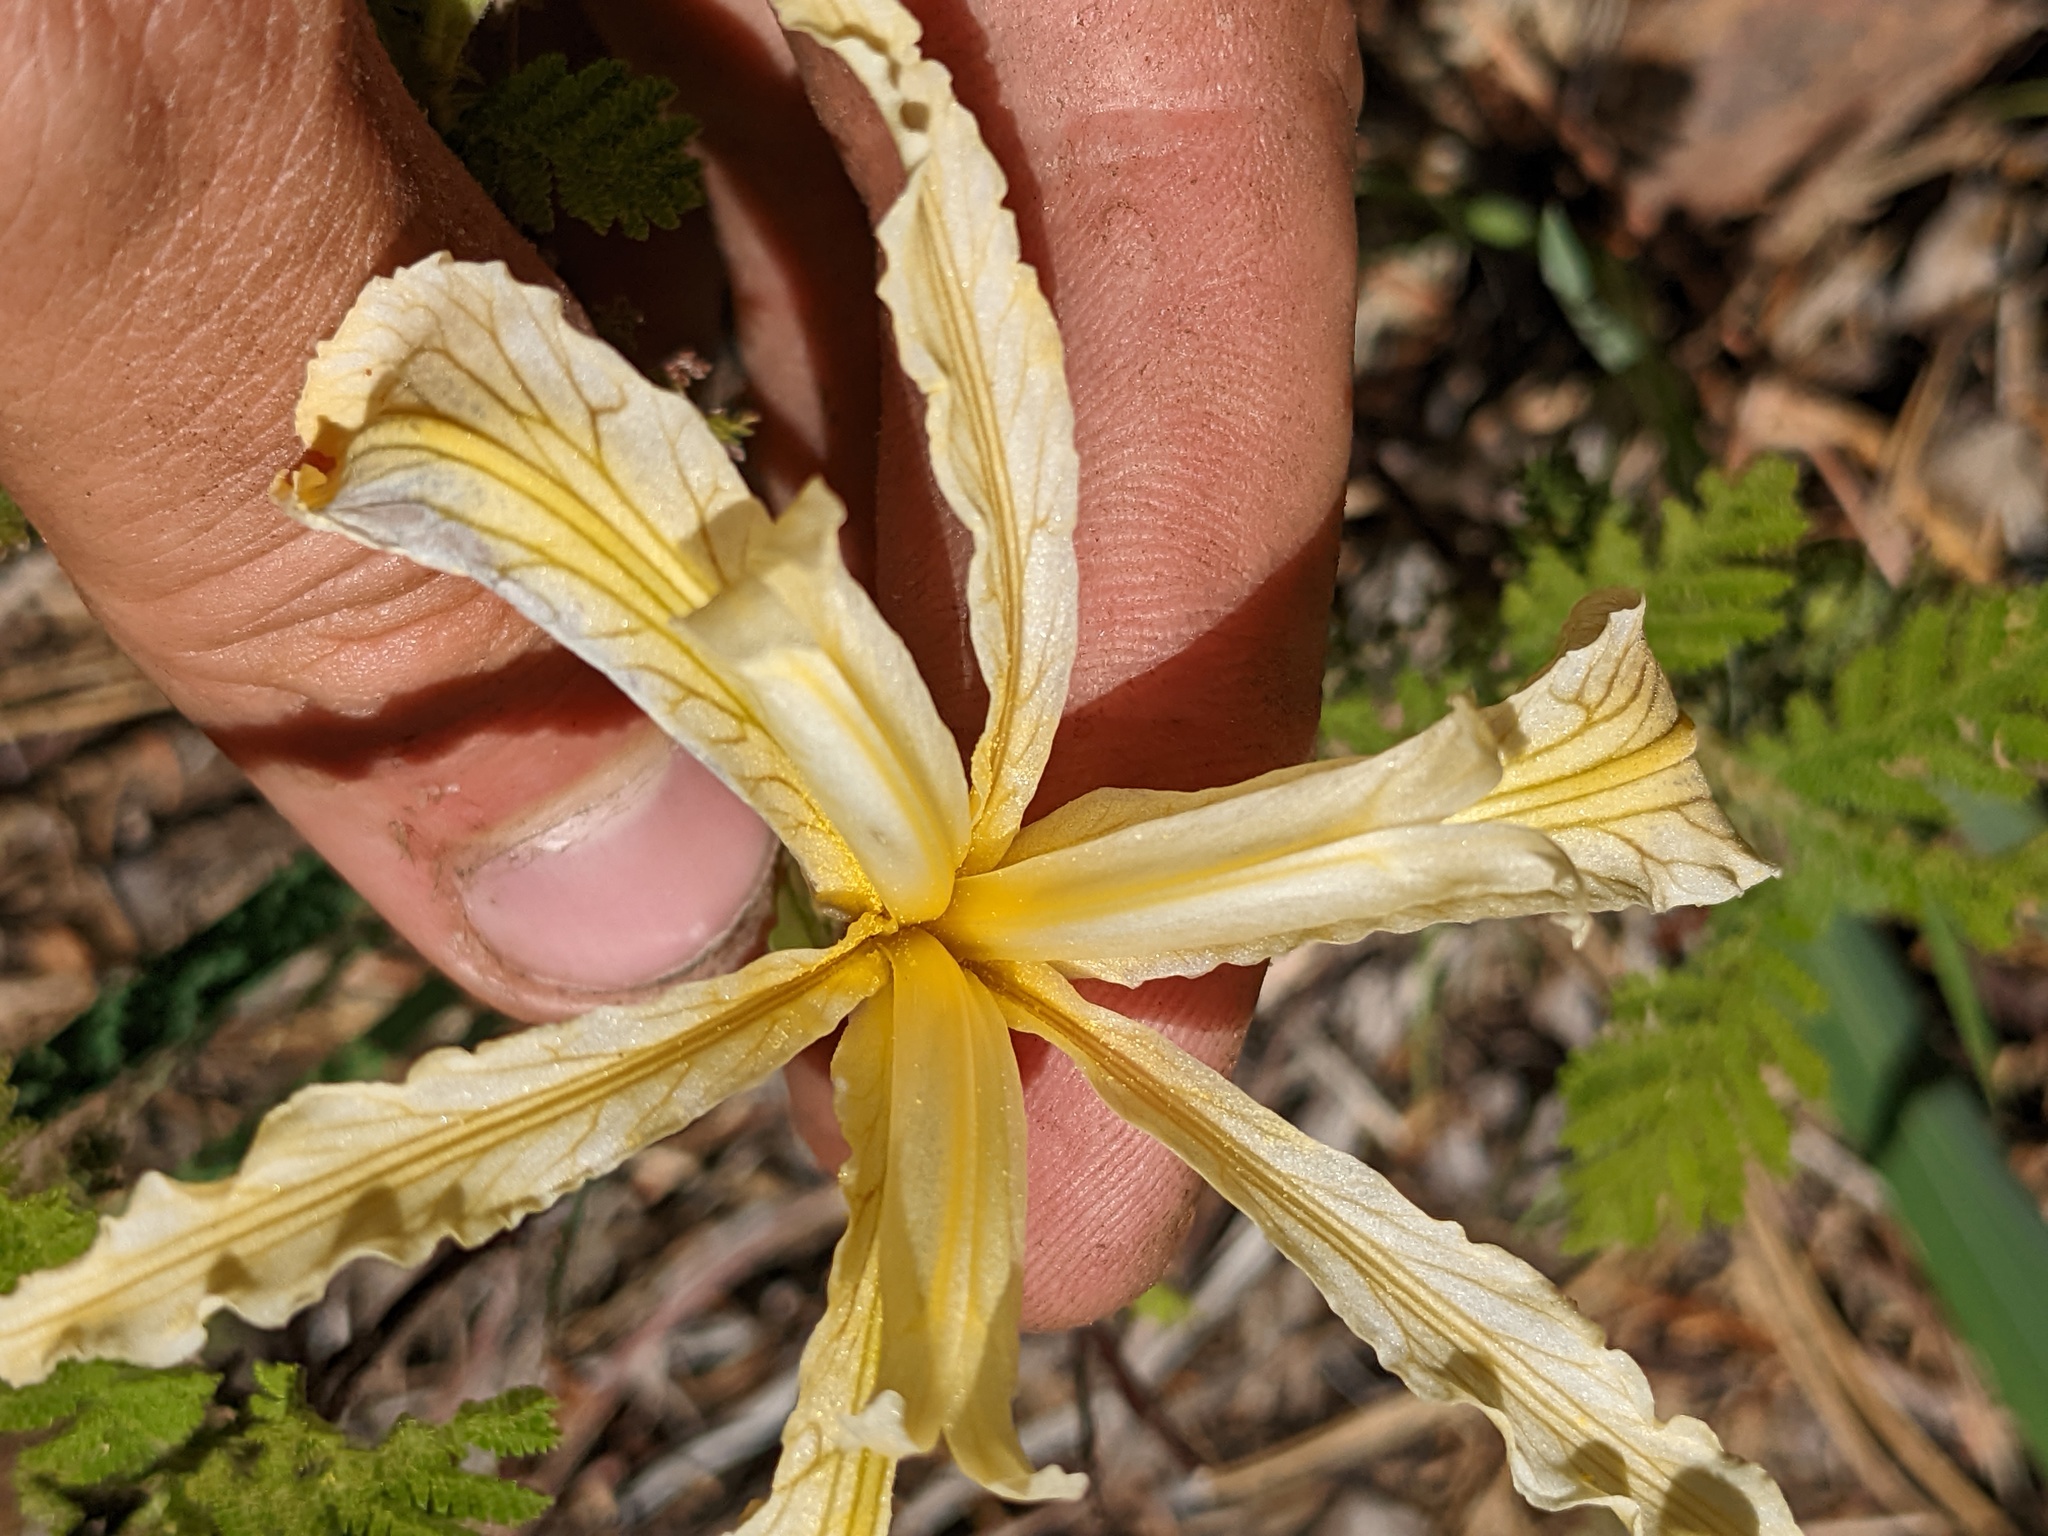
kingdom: Plantae
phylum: Tracheophyta
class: Liliopsida
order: Asparagales
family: Iridaceae
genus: Iris
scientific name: Iris hartwegii
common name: Sierra iris
